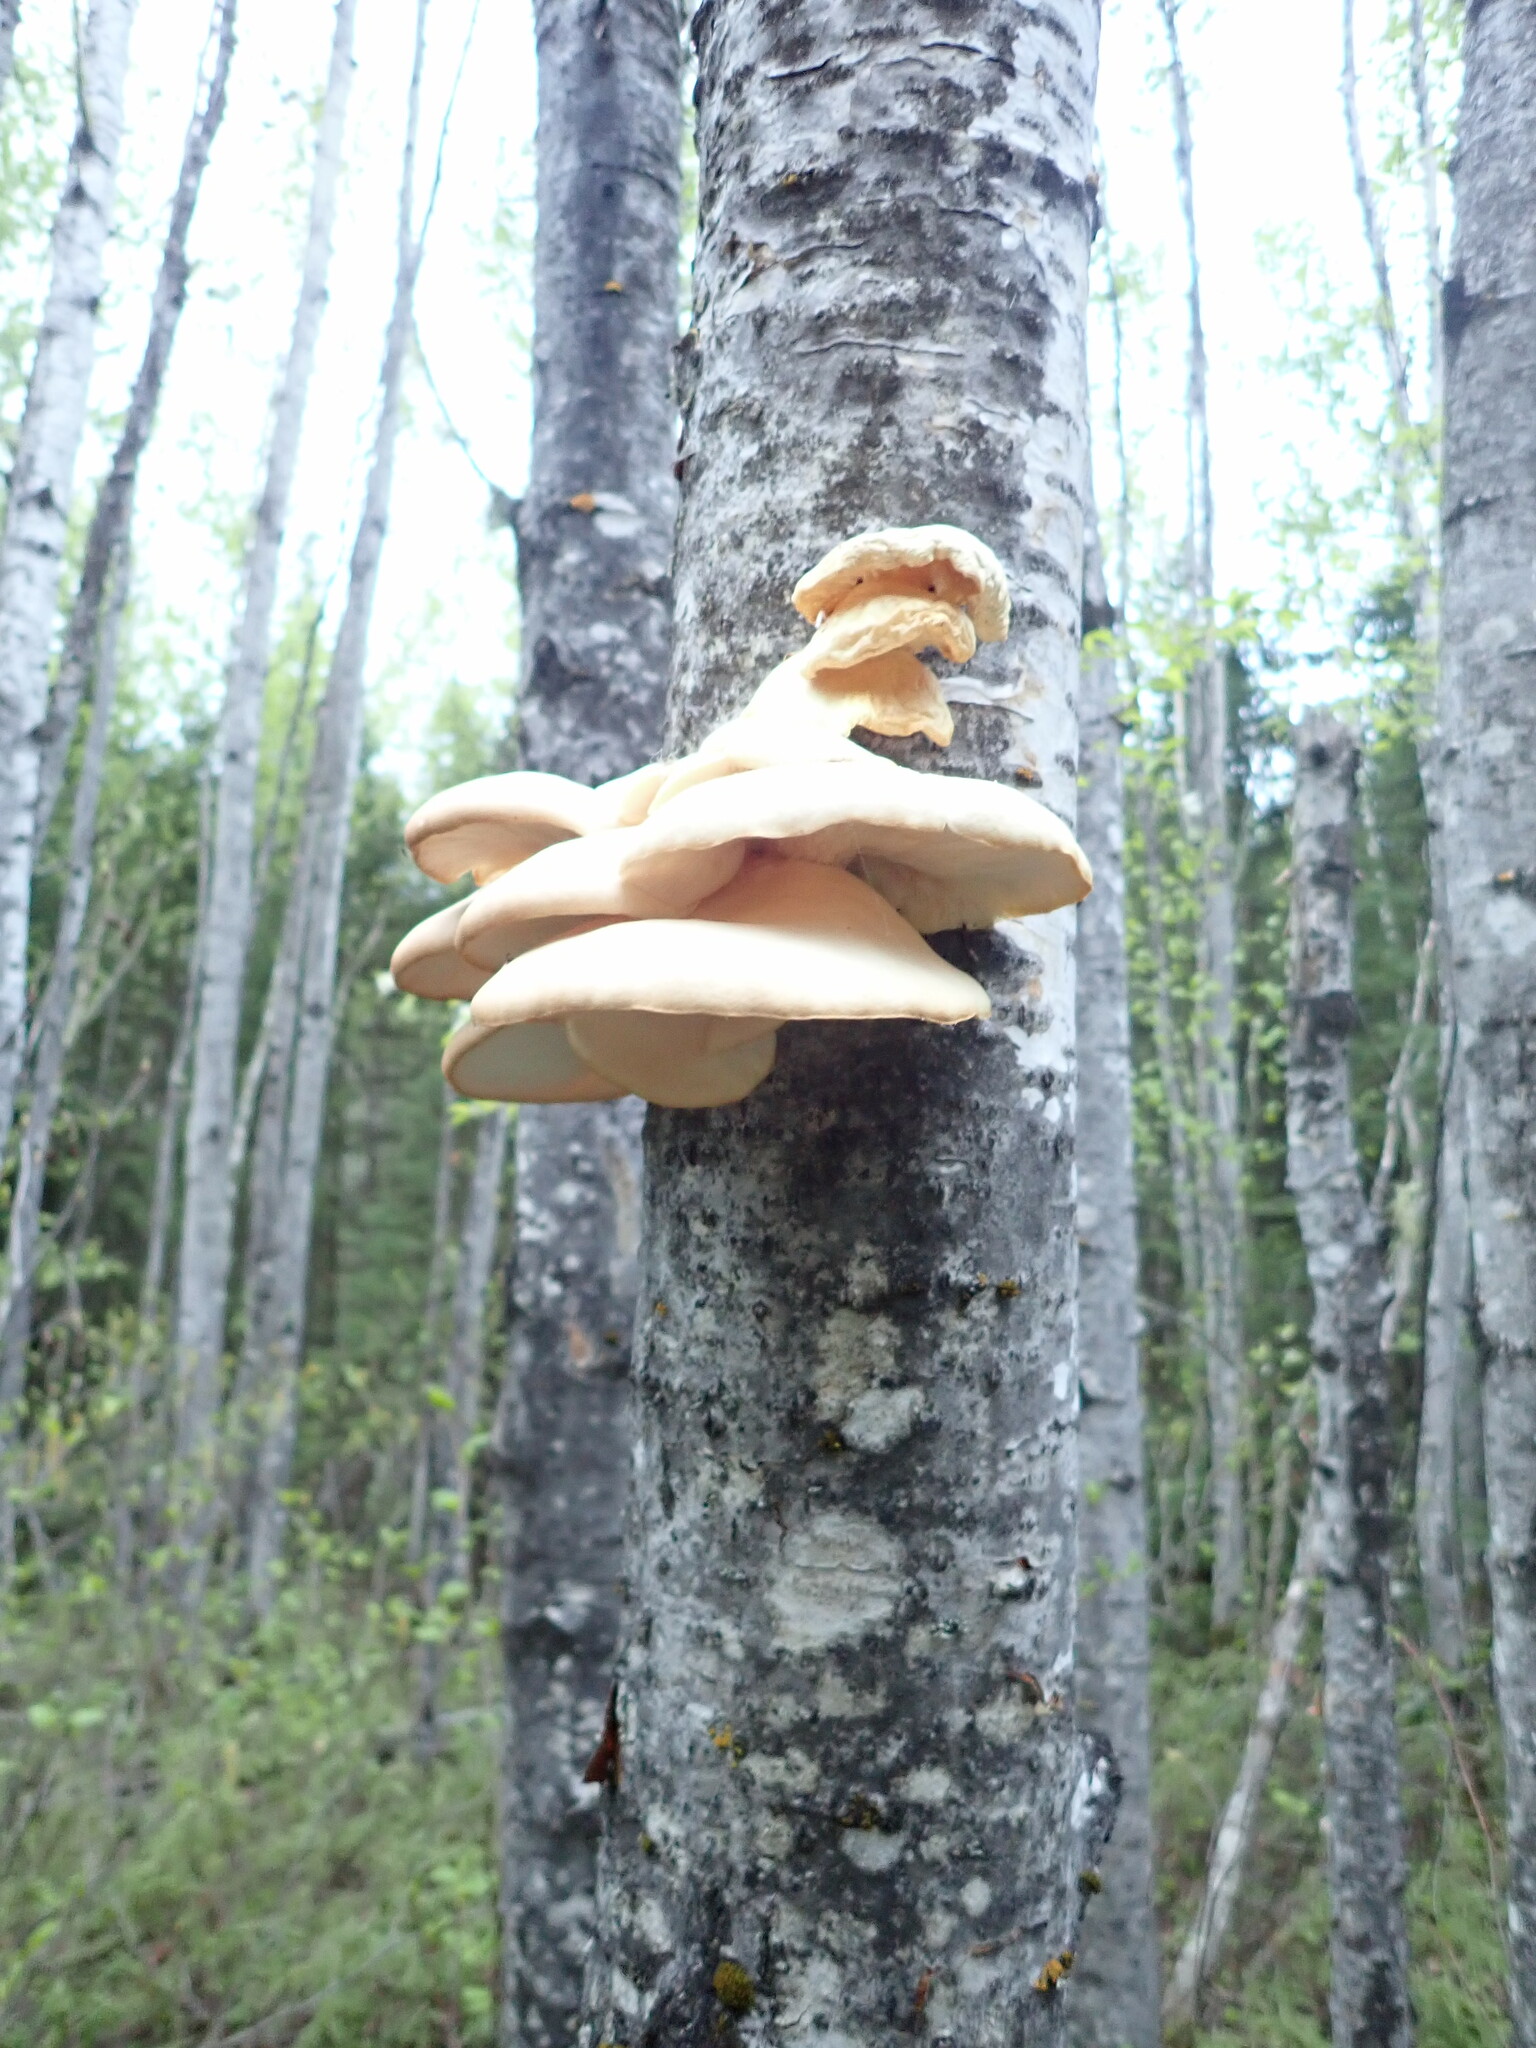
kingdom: Fungi
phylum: Basidiomycota
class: Agaricomycetes
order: Agaricales
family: Pleurotaceae
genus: Pleurotus
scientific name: Pleurotus populinus
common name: Aspen oyster mushroom
